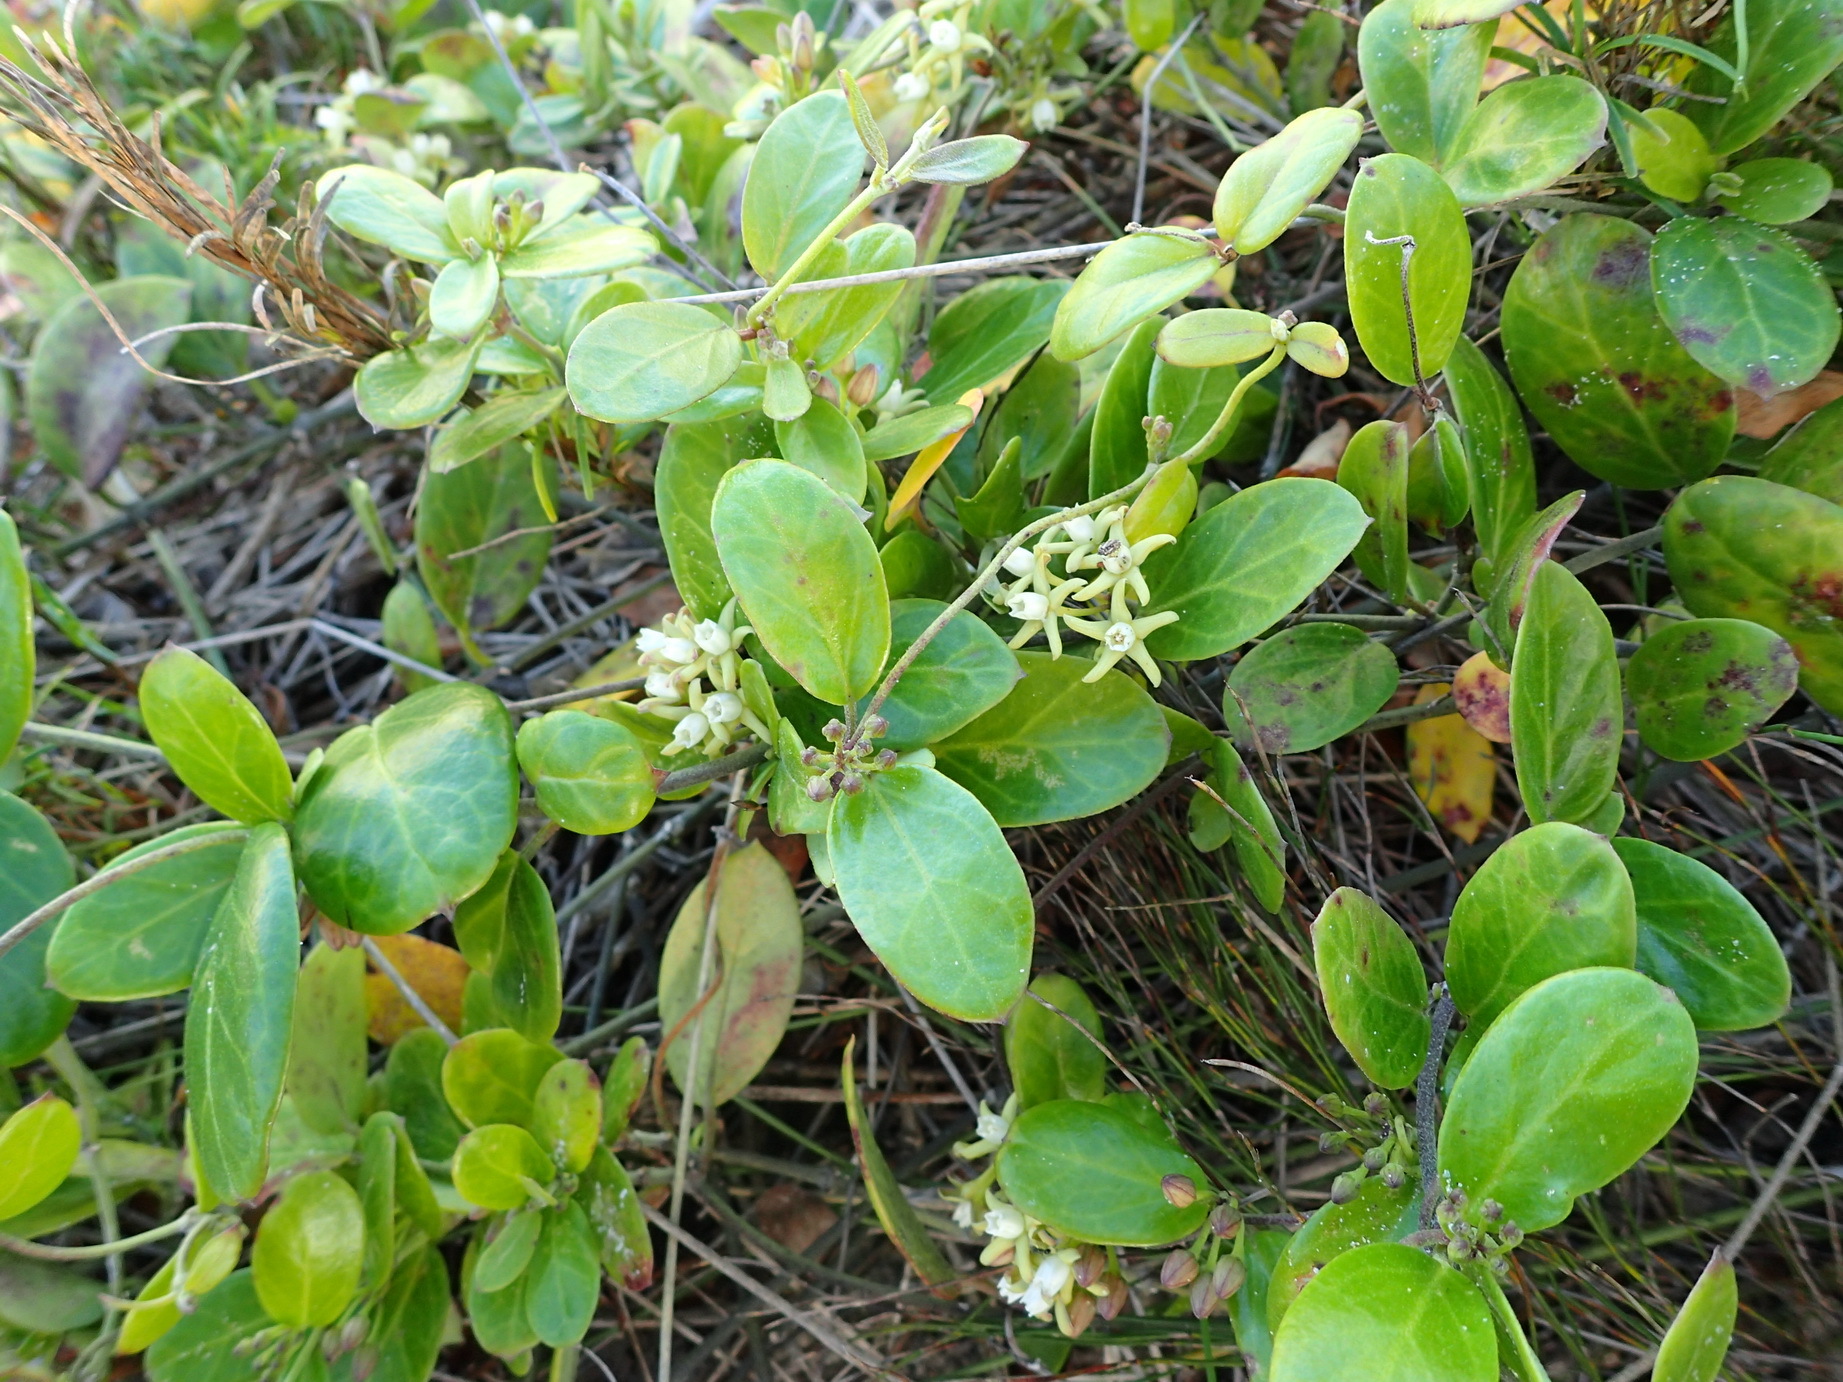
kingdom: Plantae
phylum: Tracheophyta
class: Magnoliopsida
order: Gentianales
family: Apocynaceae
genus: Cynanchum
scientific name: Cynanchum natalitium
